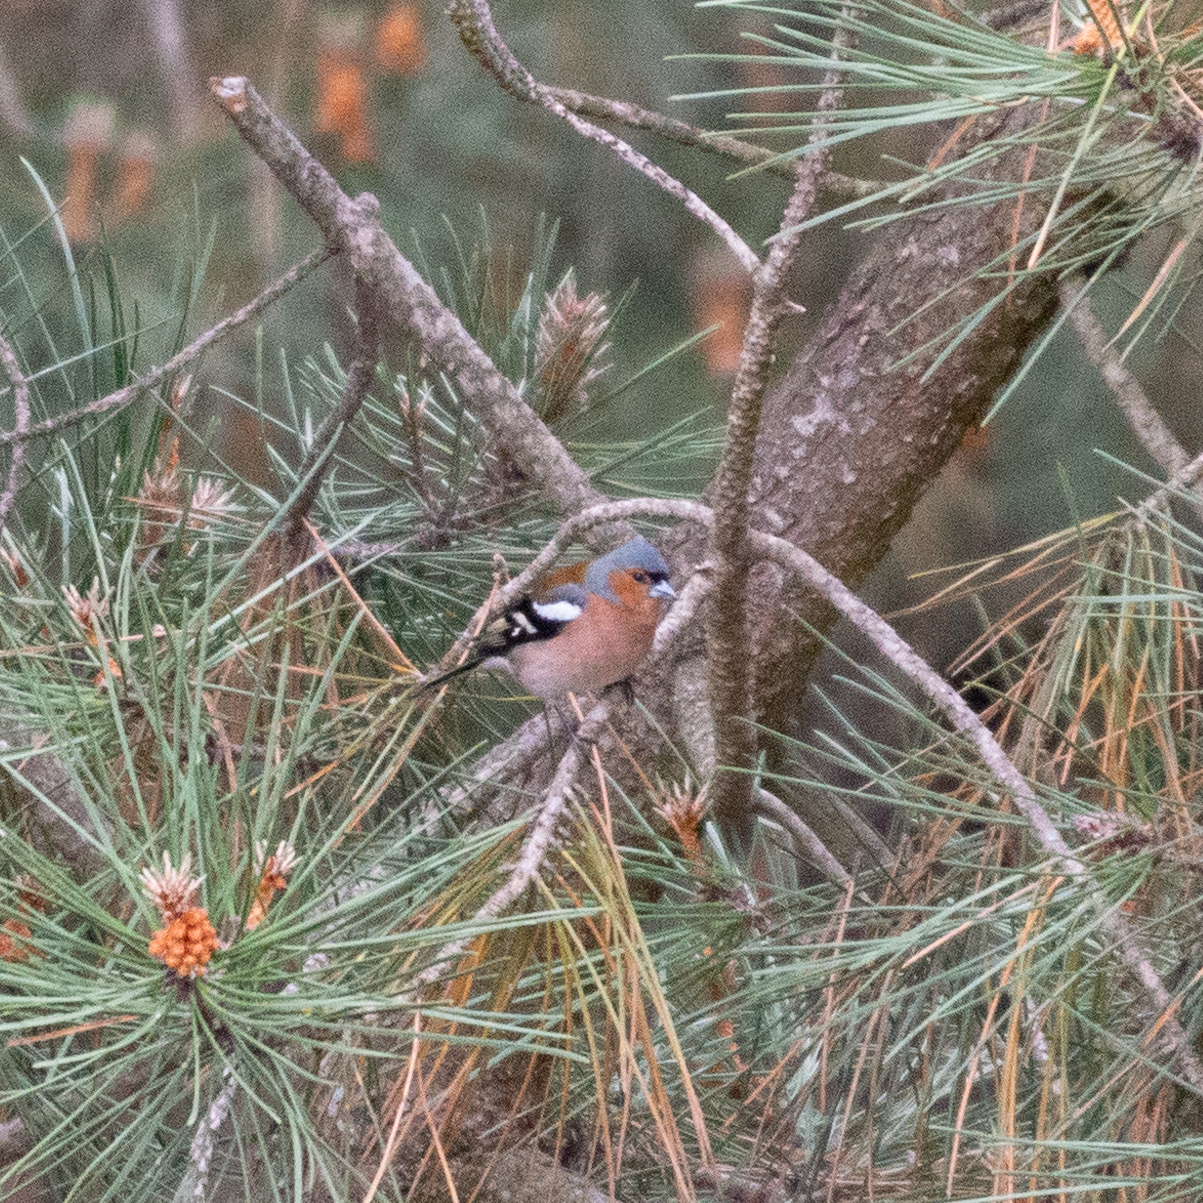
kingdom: Animalia
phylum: Chordata
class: Aves
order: Passeriformes
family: Fringillidae
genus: Fringilla
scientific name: Fringilla coelebs
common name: Common chaffinch
